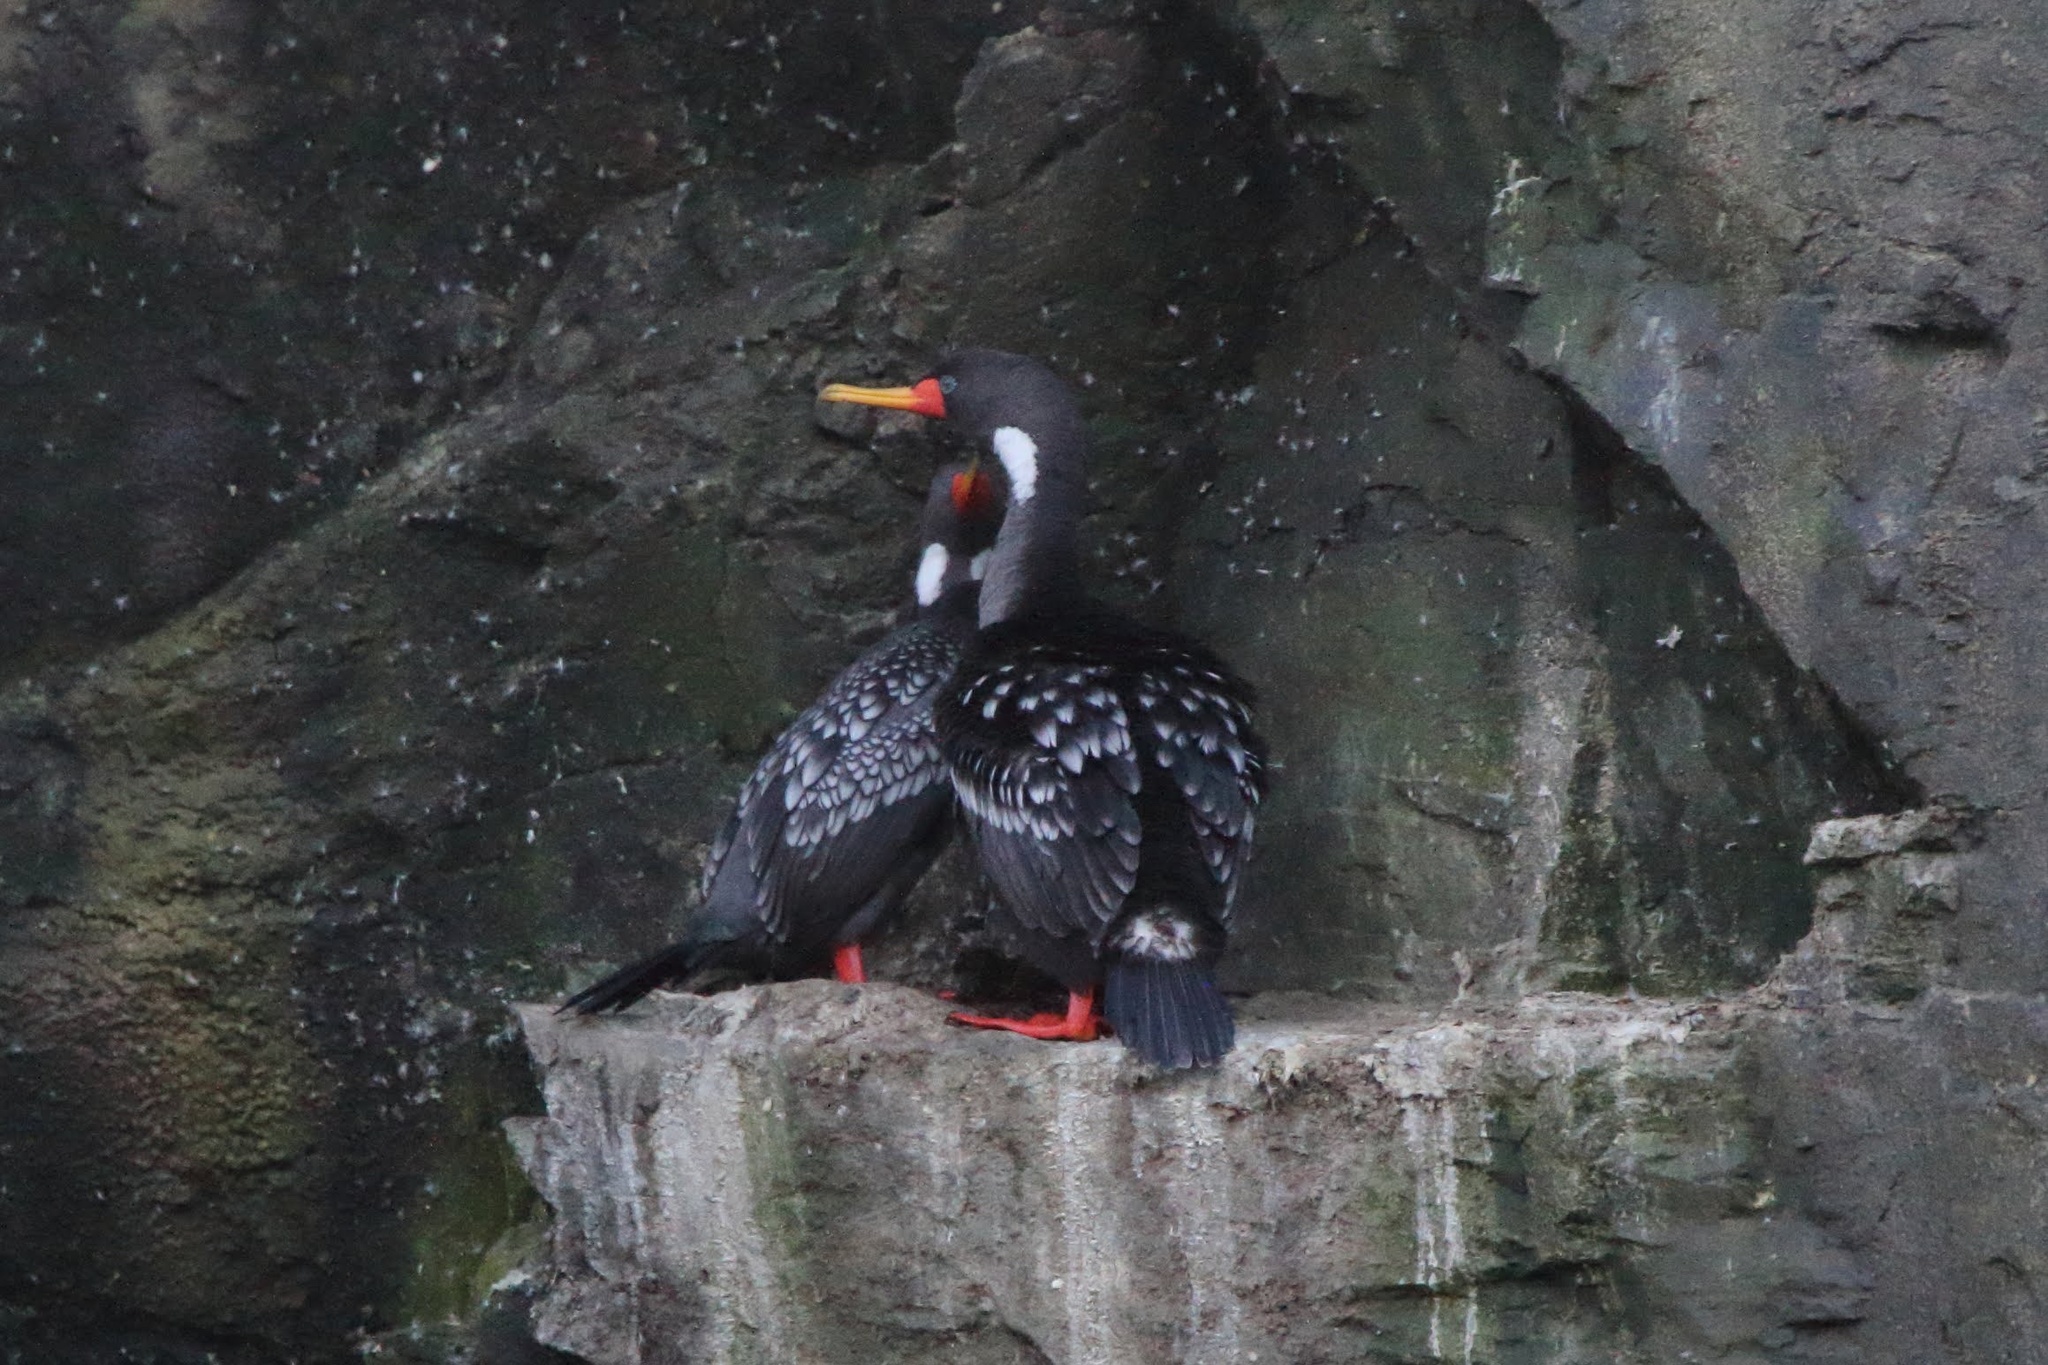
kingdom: Animalia
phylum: Chordata
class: Aves
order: Suliformes
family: Phalacrocoracidae
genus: Phalacrocorax
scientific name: Phalacrocorax gaimardi
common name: Red-legged cormorant
